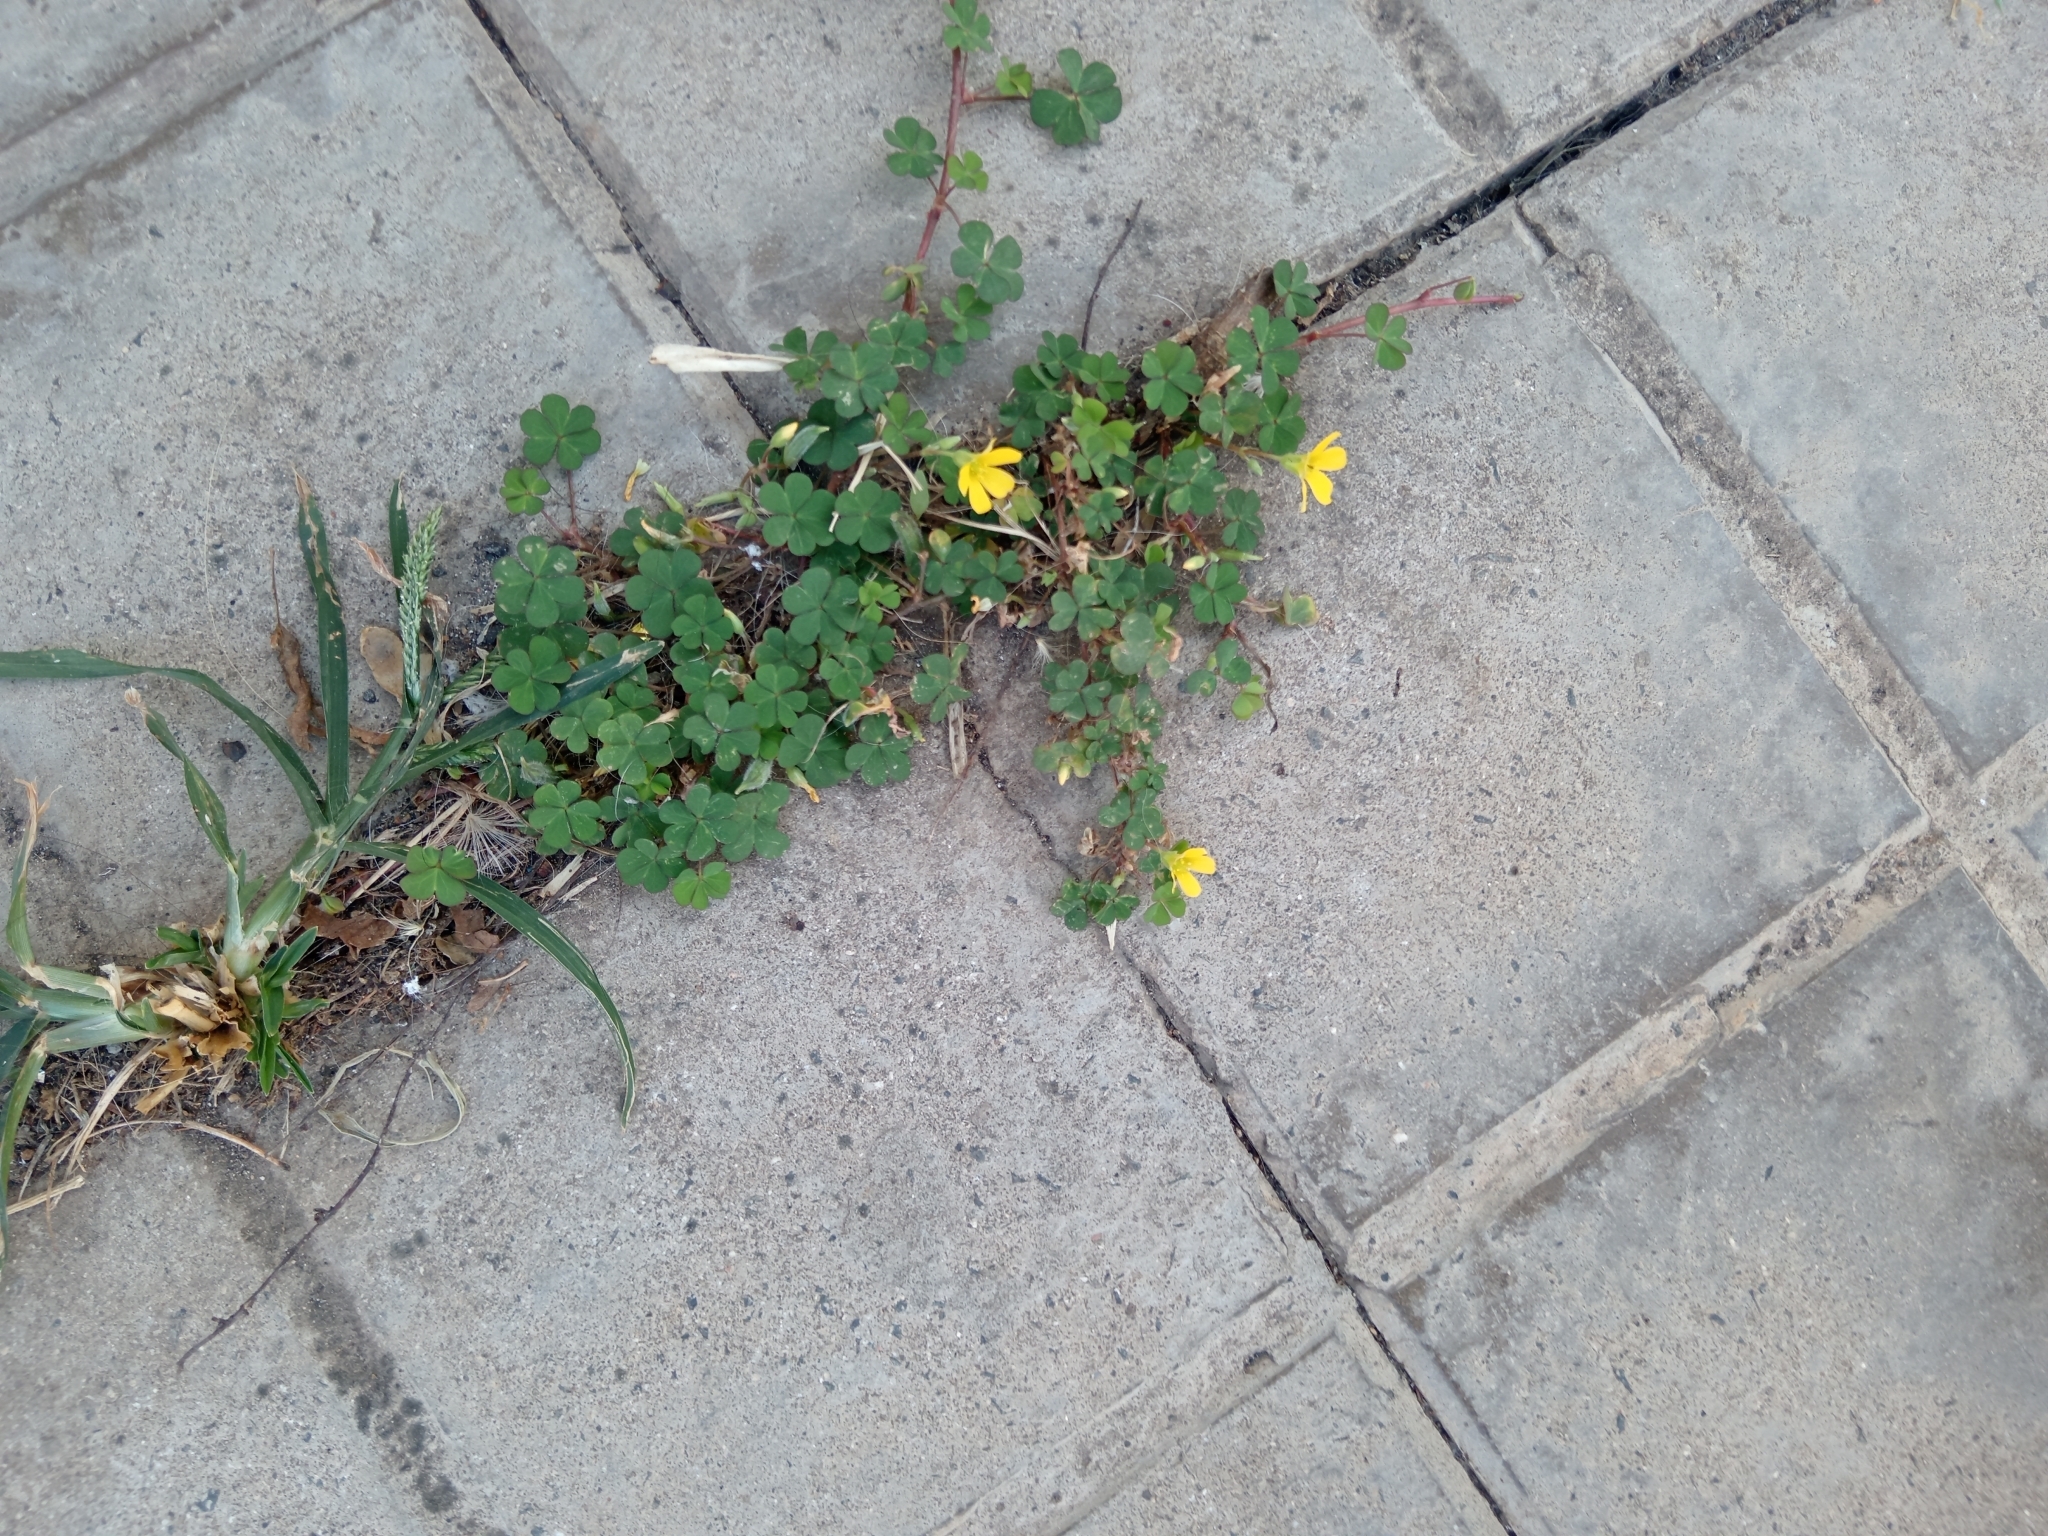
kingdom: Plantae
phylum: Tracheophyta
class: Magnoliopsida
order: Oxalidales
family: Oxalidaceae
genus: Oxalis
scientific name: Oxalis corniculata
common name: Procumbent yellow-sorrel
